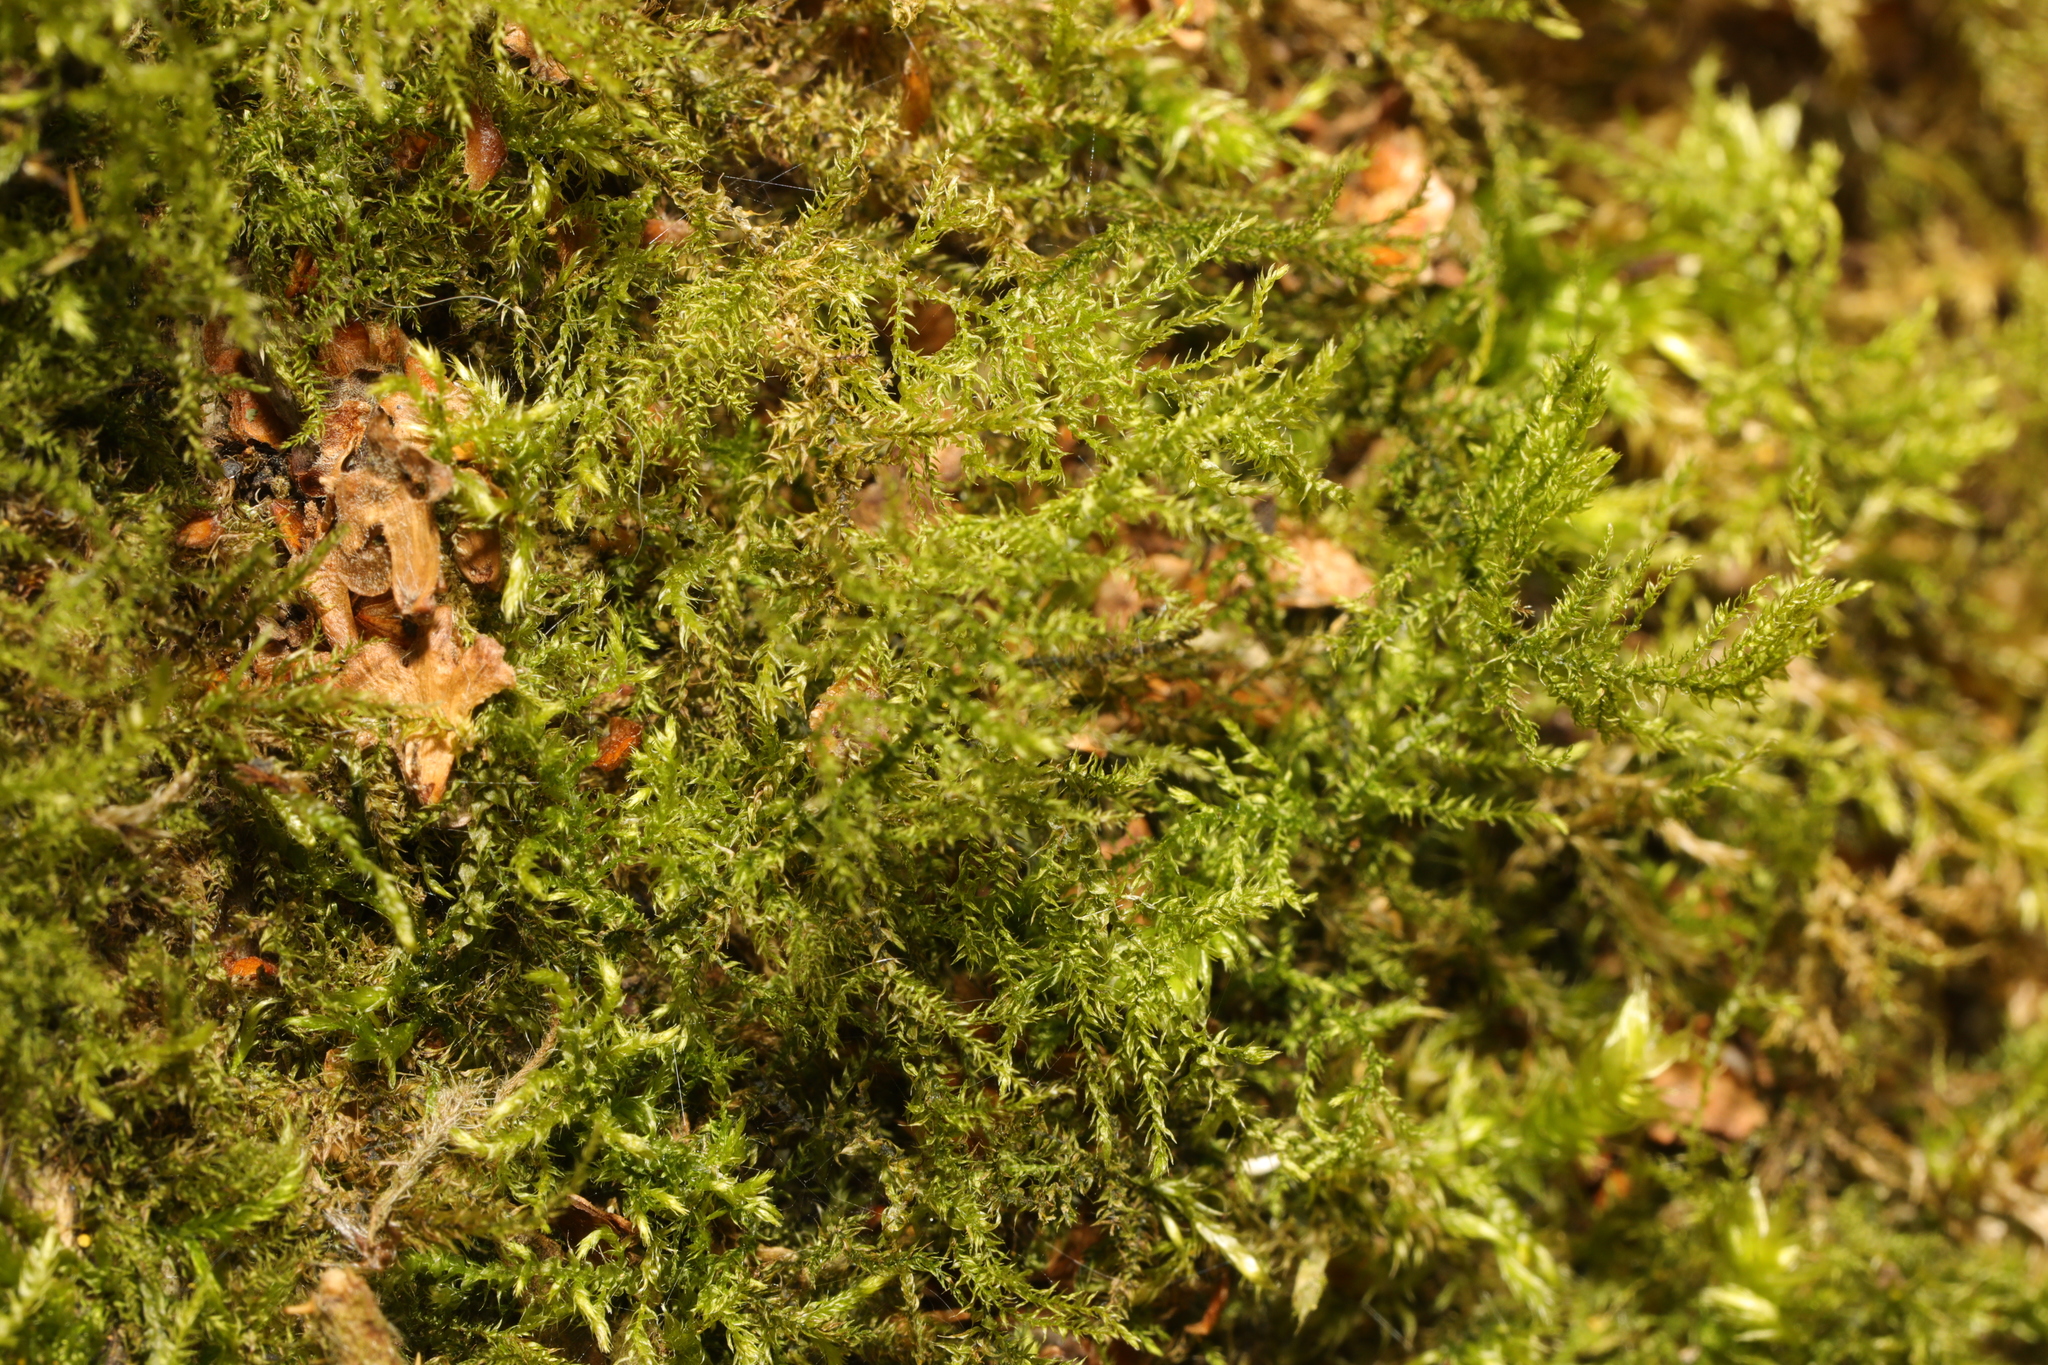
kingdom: Plantae
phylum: Bryophyta
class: Bryopsida
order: Hypnales
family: Brachytheciaceae
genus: Kindbergia
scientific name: Kindbergia praelonga
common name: Slender beaked moss
